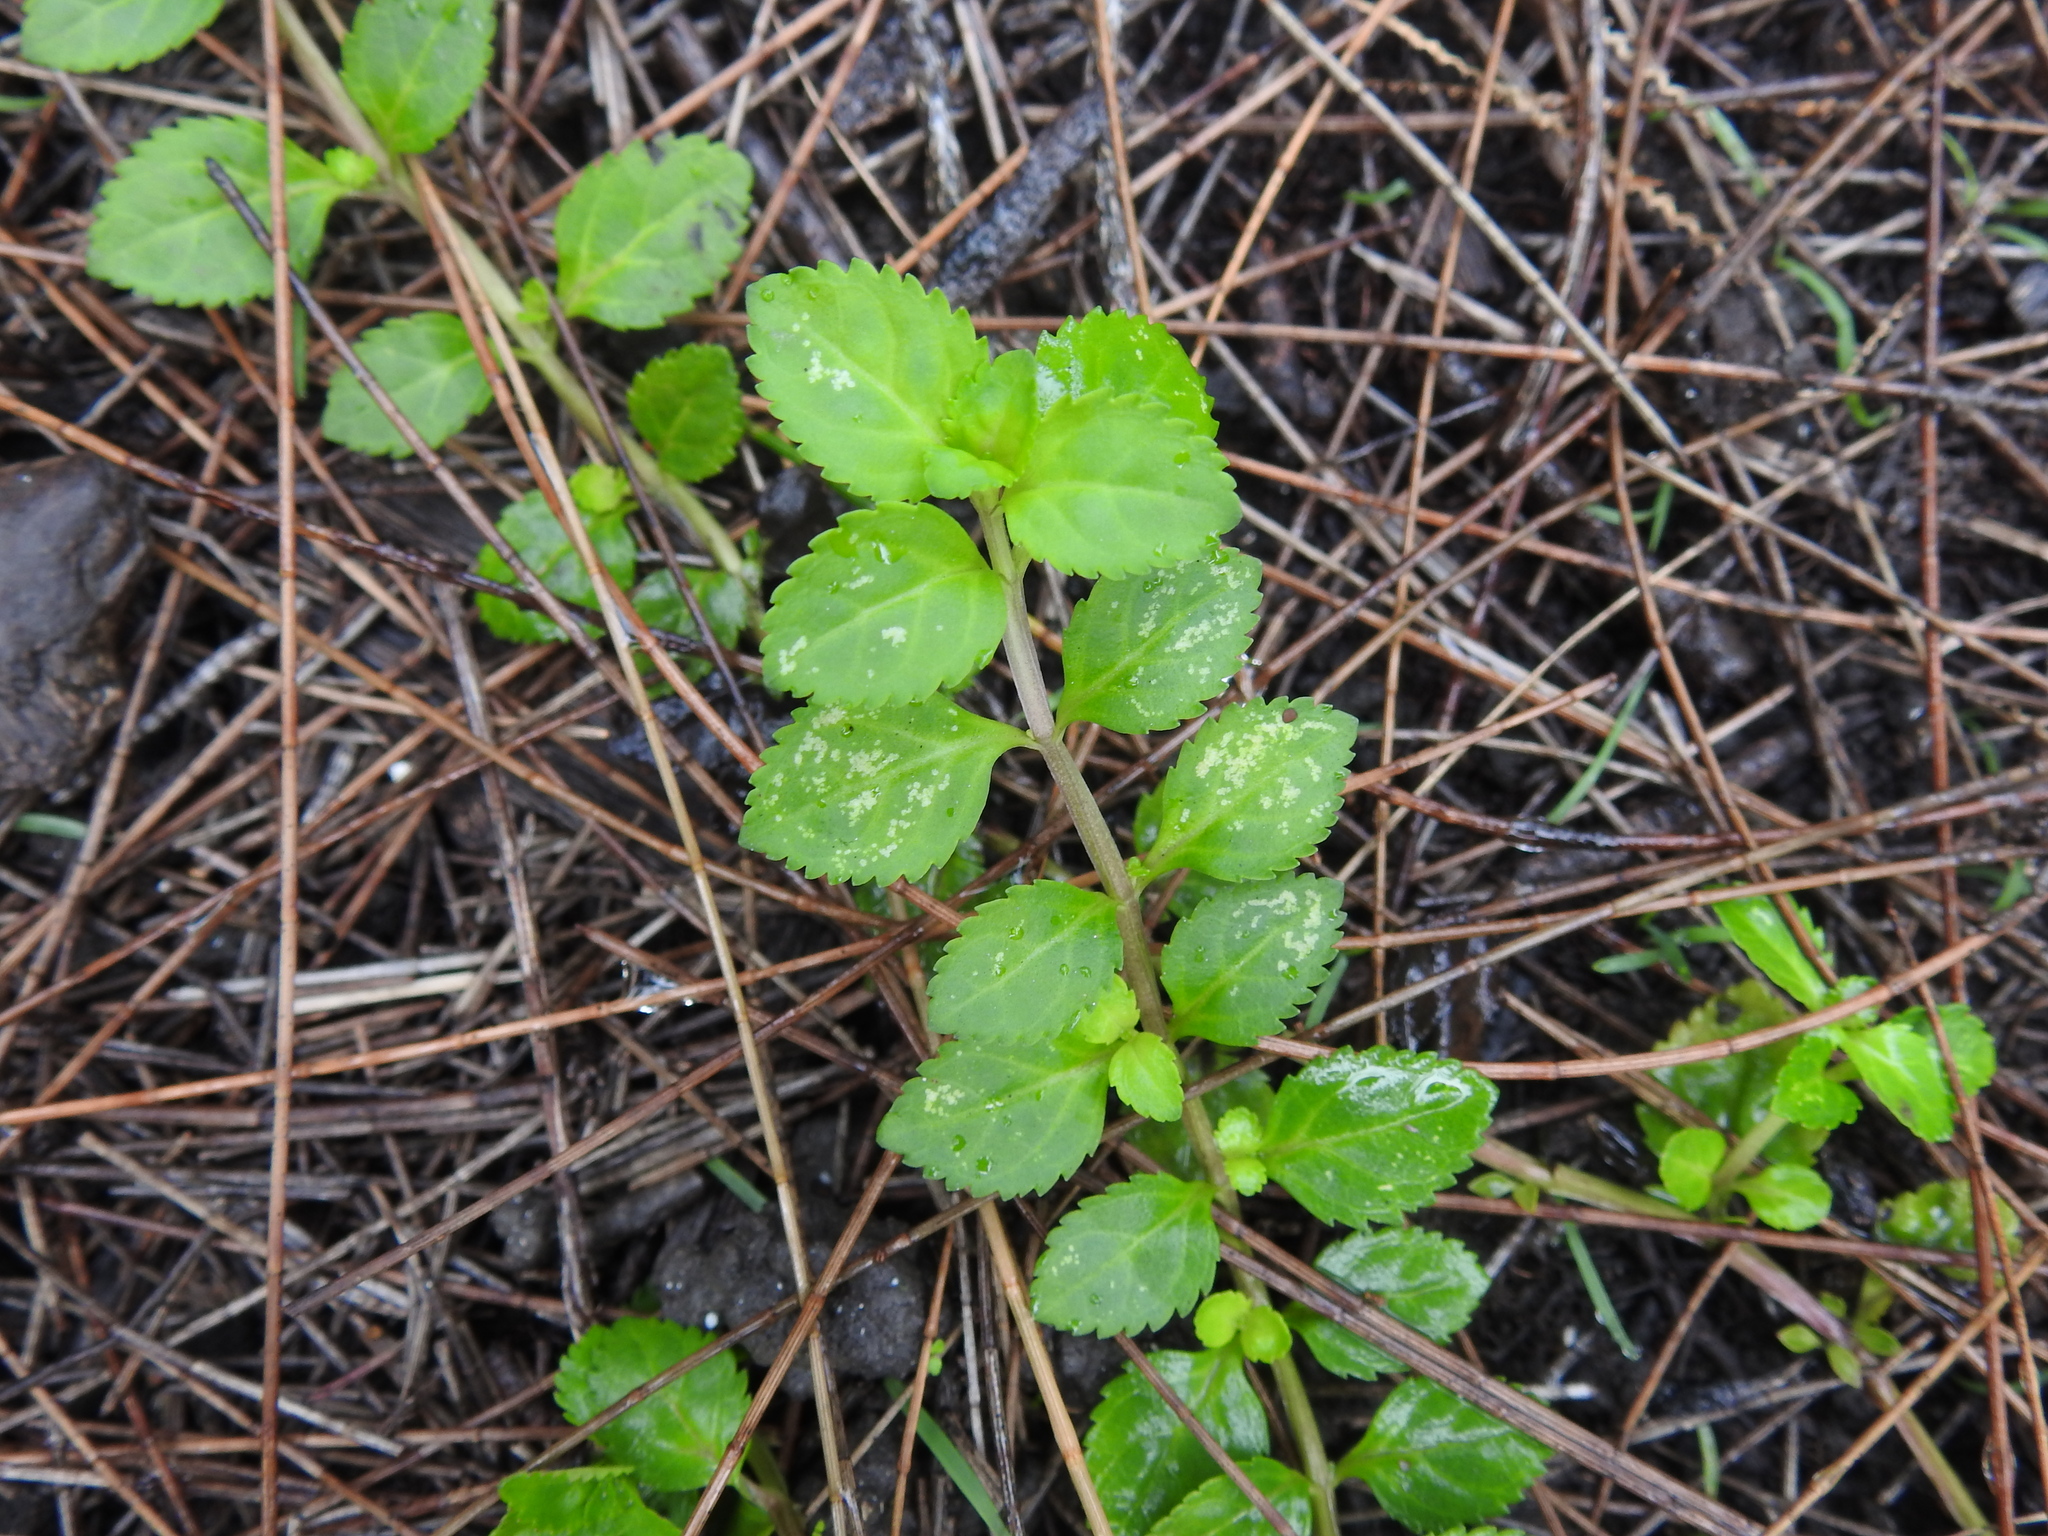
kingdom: Plantae
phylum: Tracheophyta
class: Magnoliopsida
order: Lamiales
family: Plantaginaceae
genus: Mecardonia
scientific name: Mecardonia procumbens
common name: Baby jump-up
